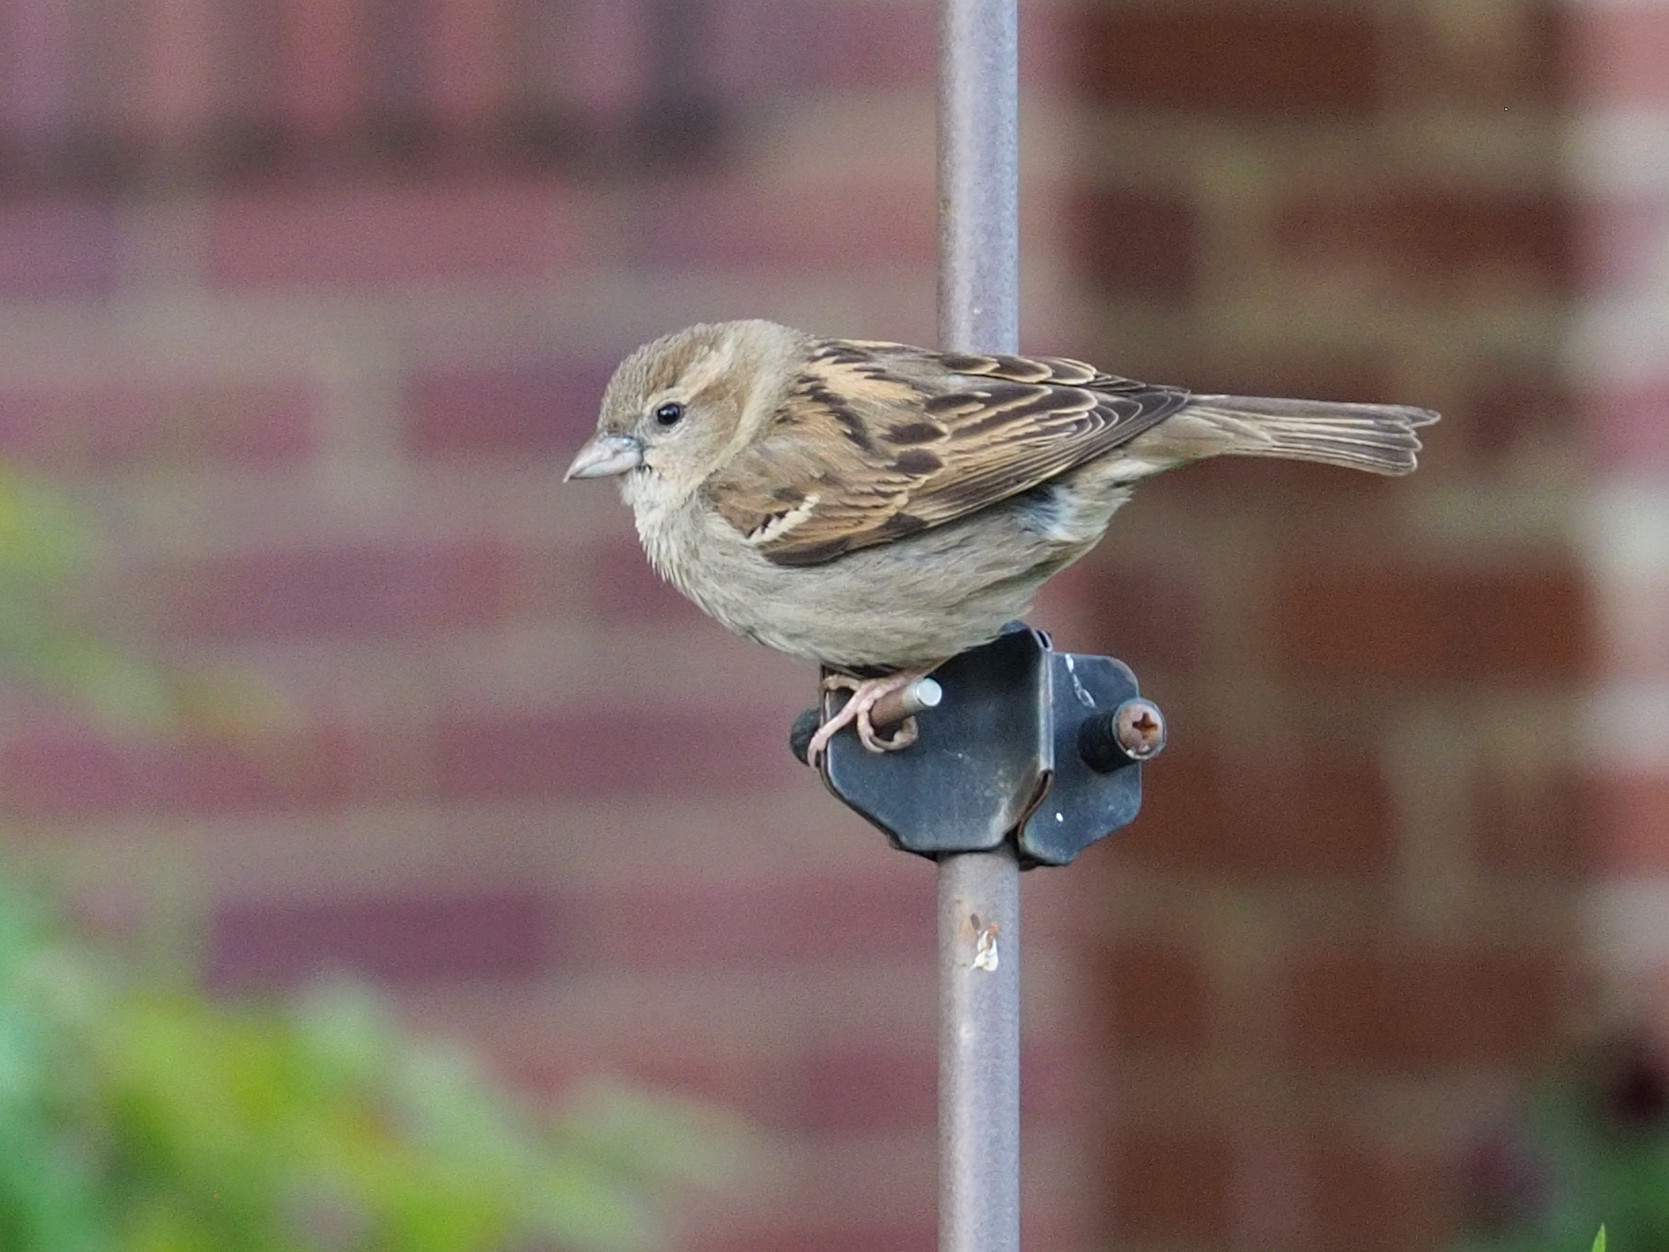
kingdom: Animalia
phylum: Chordata
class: Aves
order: Passeriformes
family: Passeridae
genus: Passer
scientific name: Passer domesticus
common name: House sparrow
